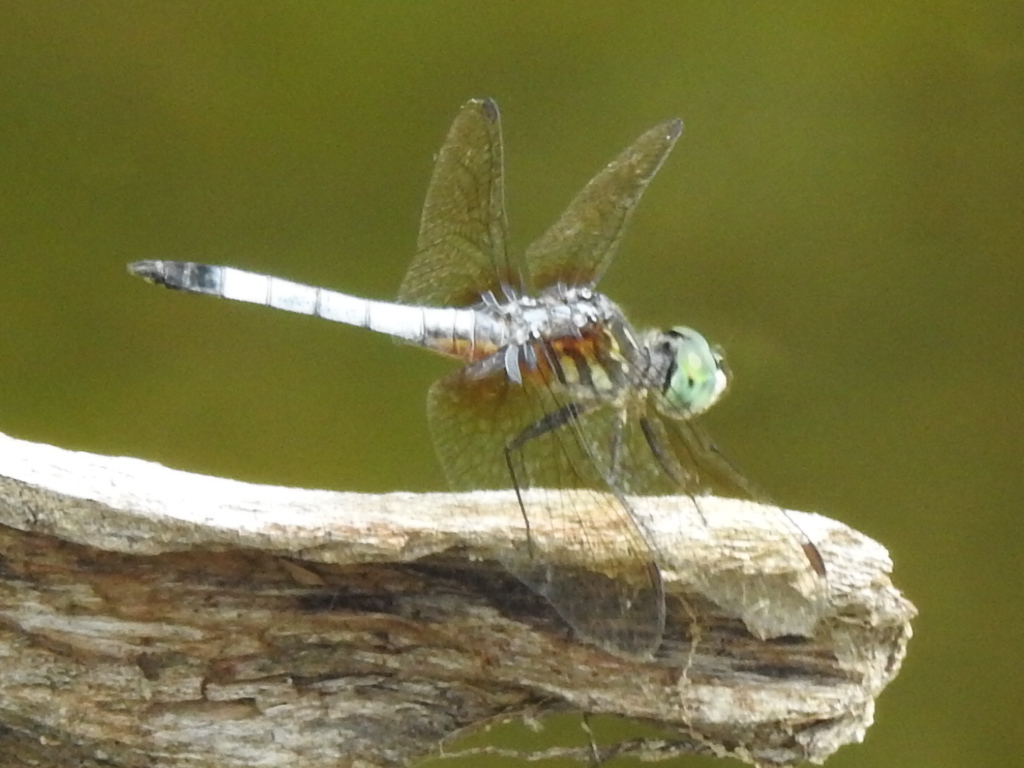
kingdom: Animalia
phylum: Arthropoda
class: Insecta
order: Odonata
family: Libellulidae
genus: Pachydiplax
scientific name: Pachydiplax longipennis
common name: Blue dasher
